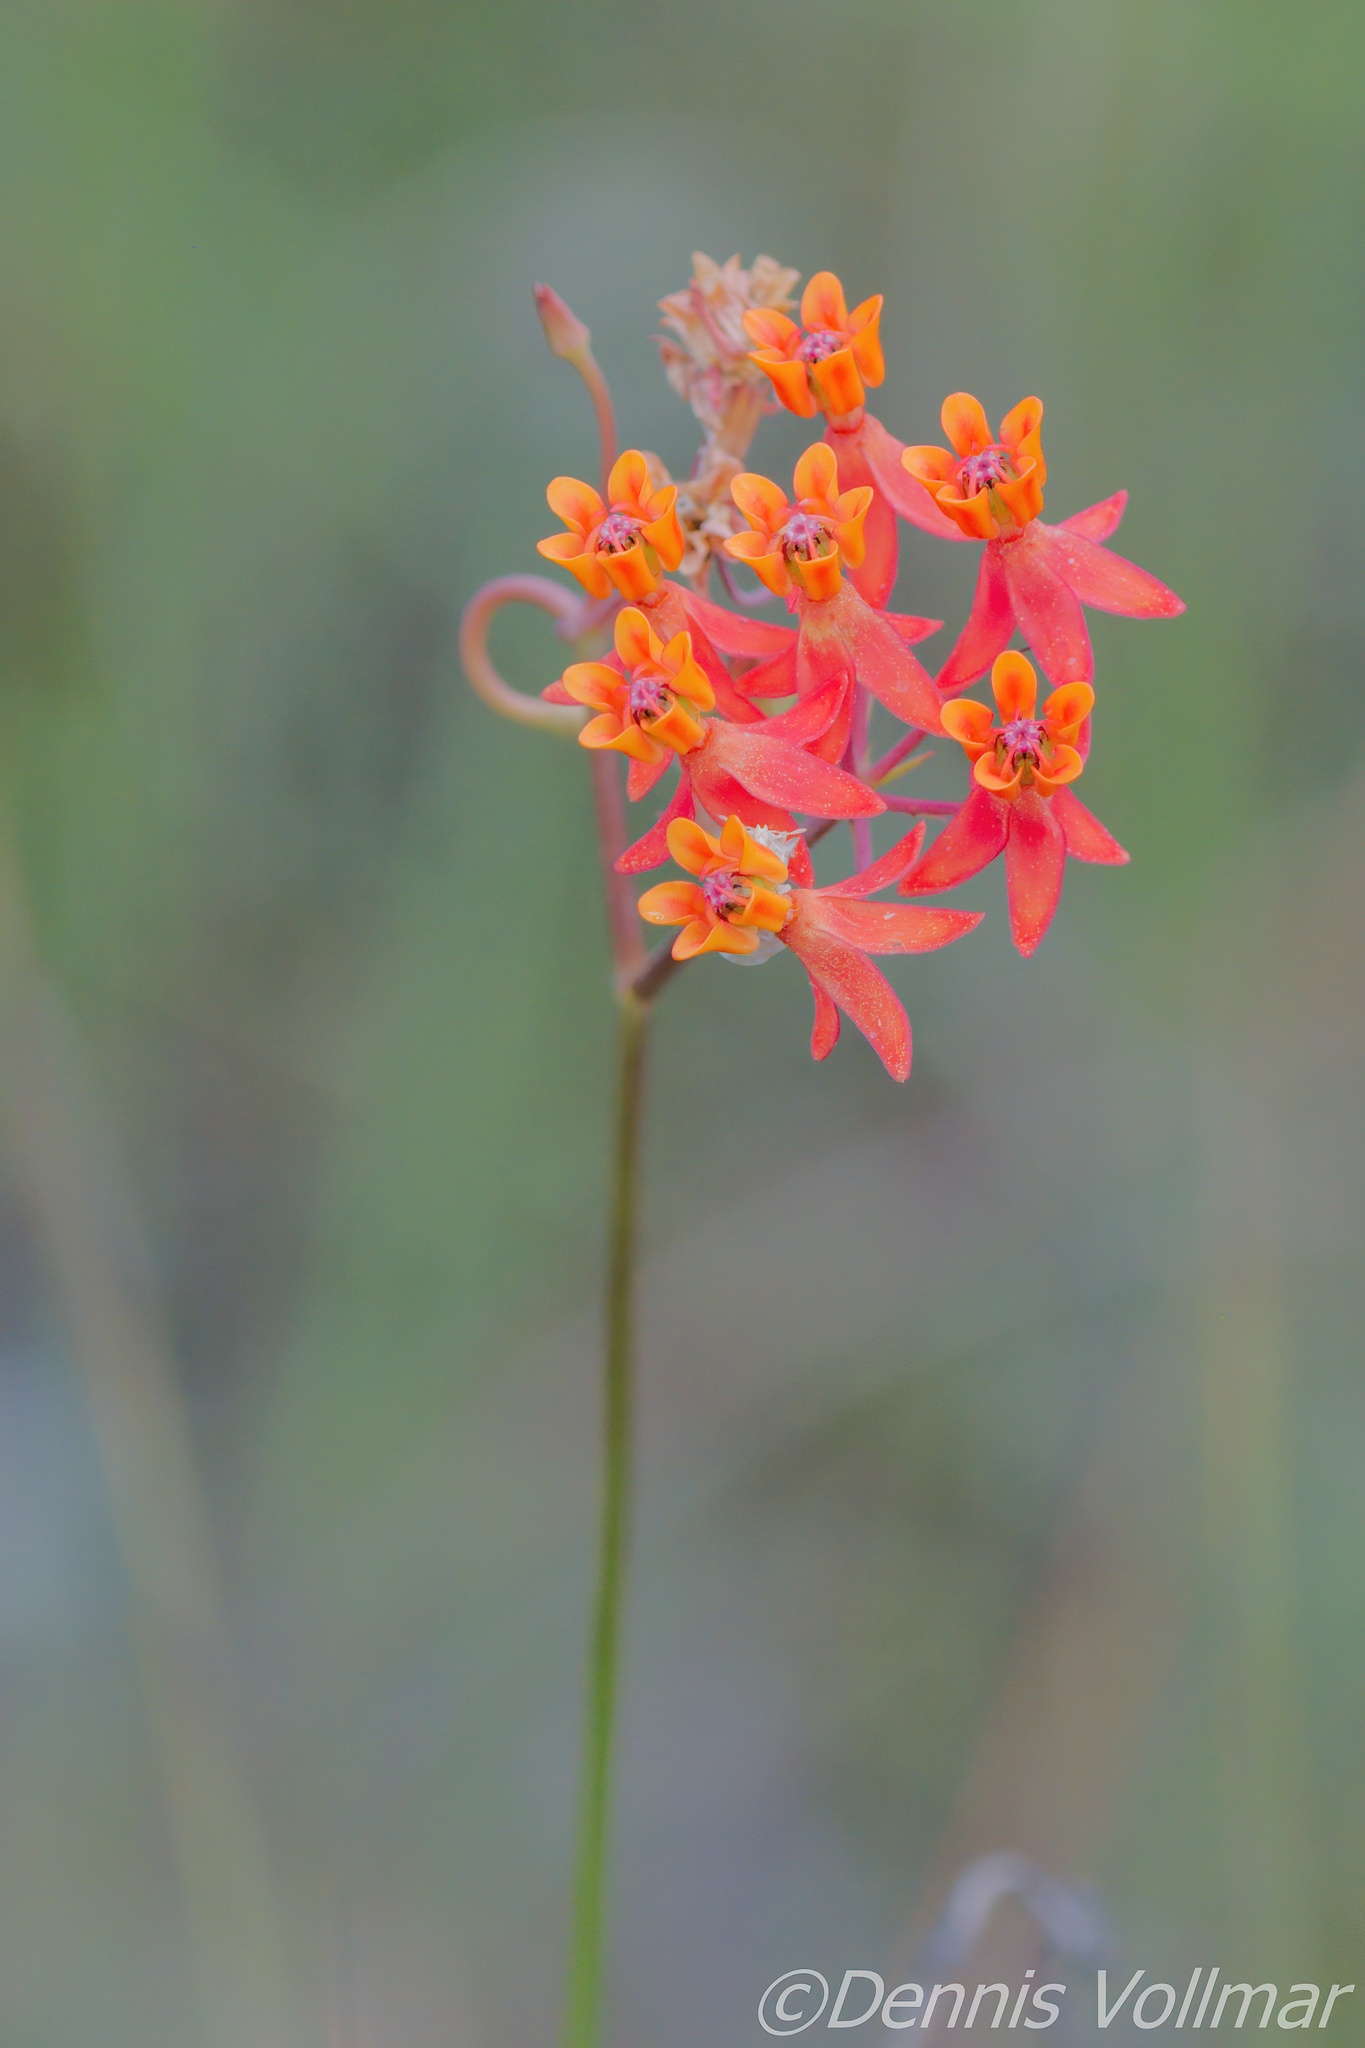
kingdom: Plantae
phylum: Tracheophyta
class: Magnoliopsida
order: Gentianales
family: Apocynaceae
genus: Asclepias
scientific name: Asclepias lanceolata
